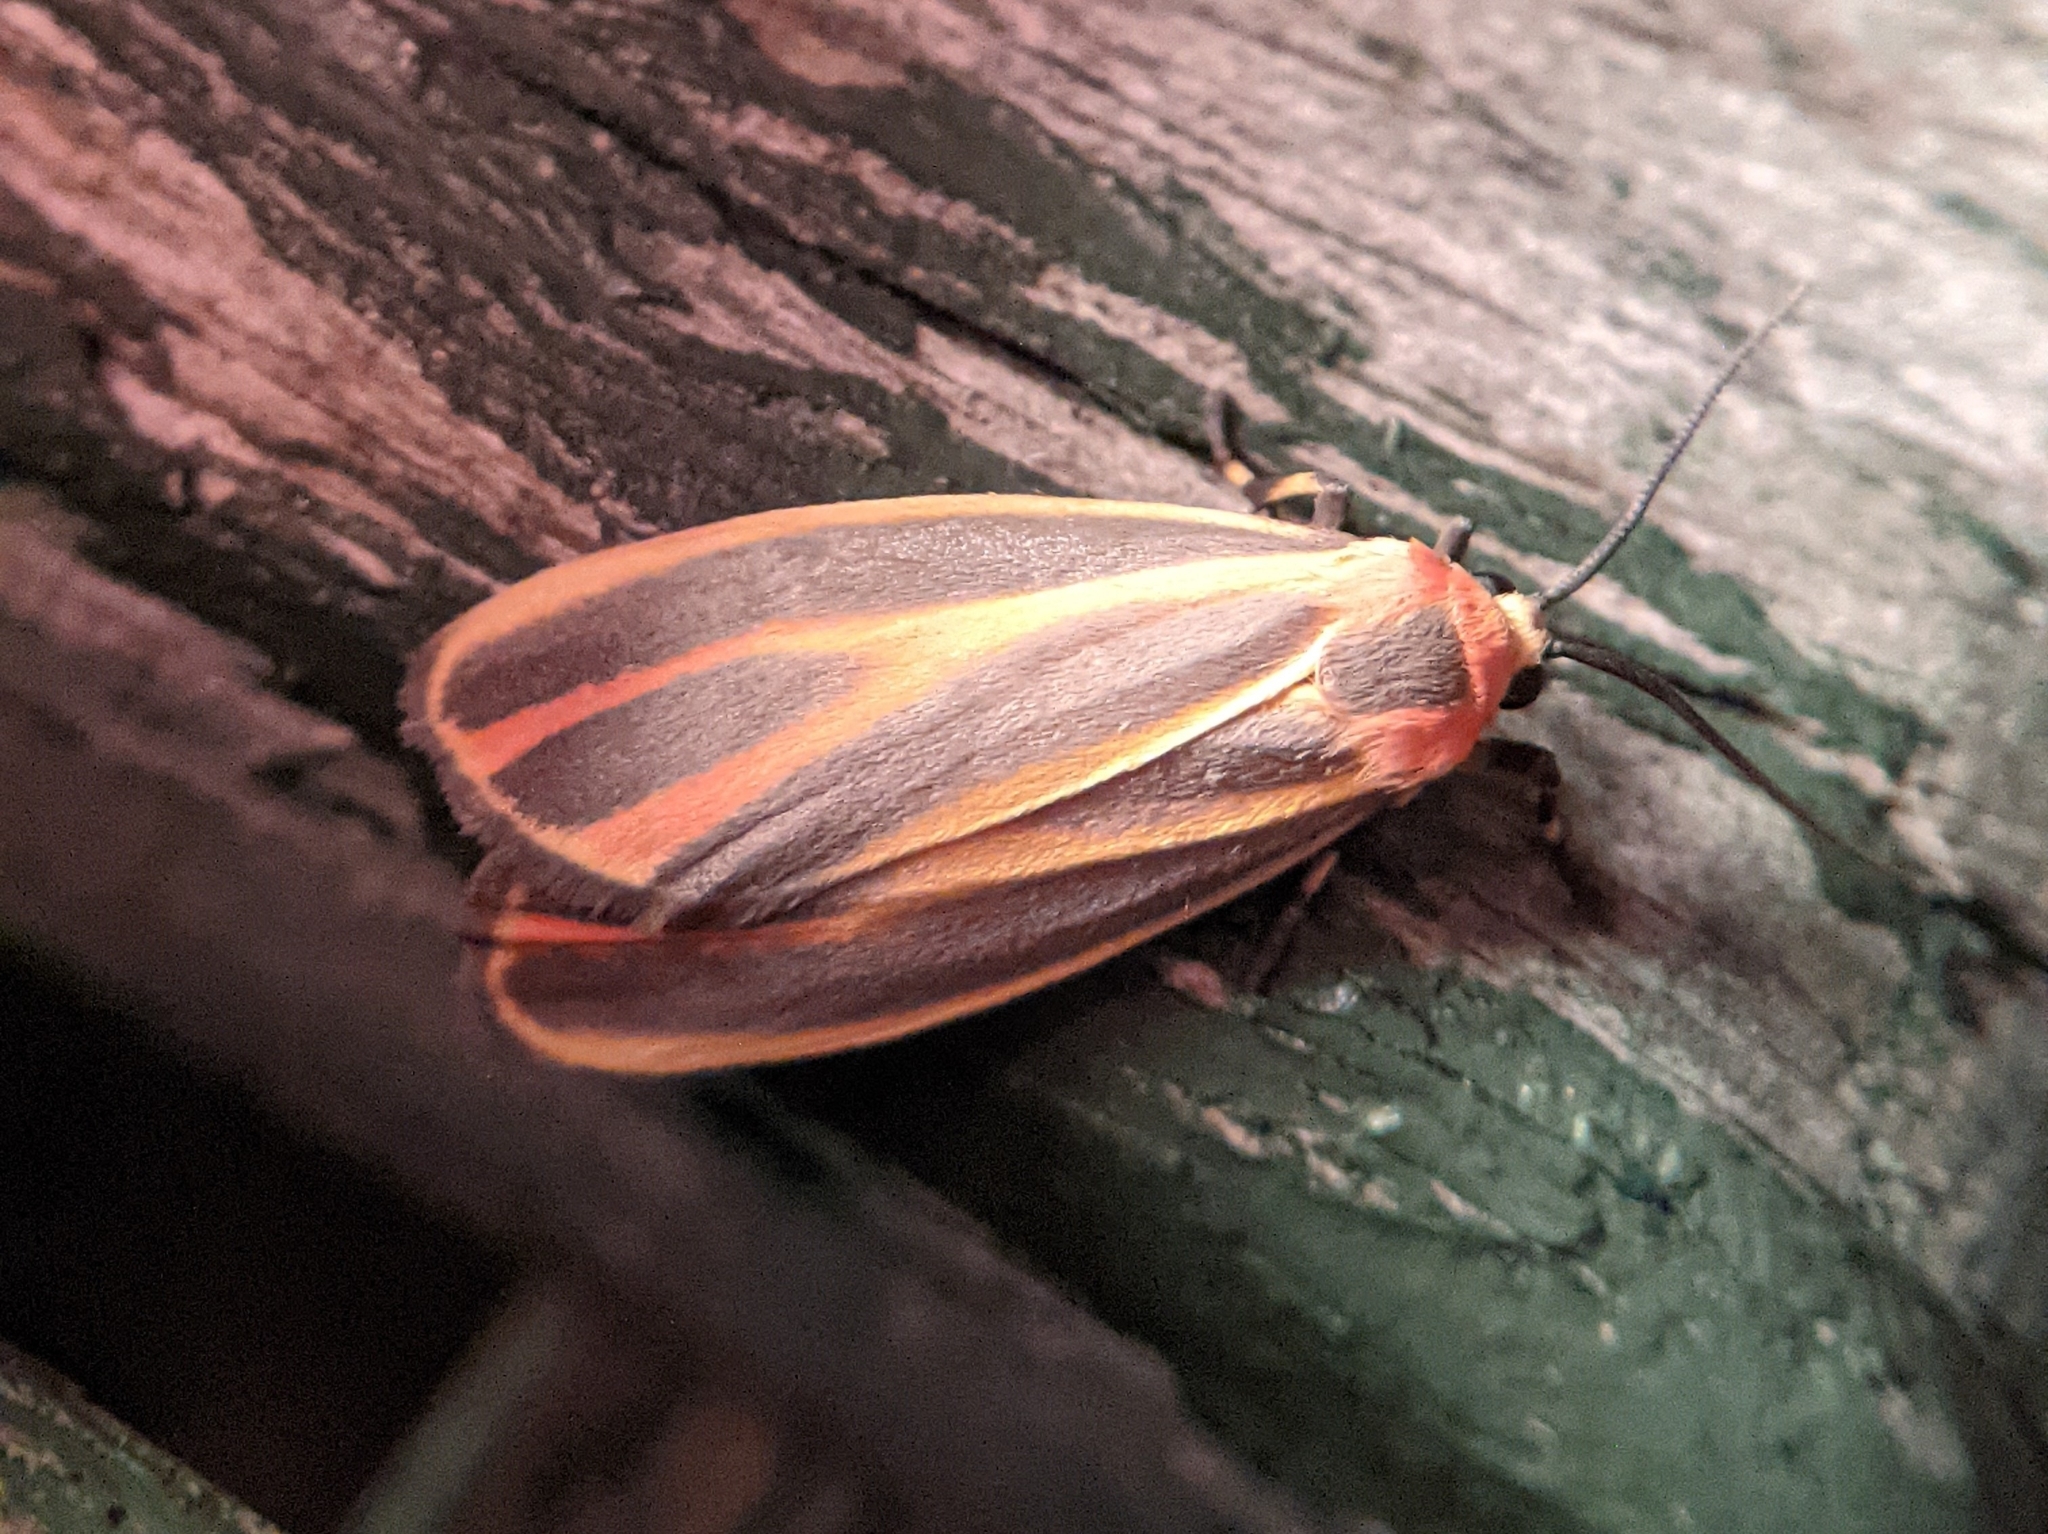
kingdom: Animalia
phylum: Arthropoda
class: Insecta
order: Lepidoptera
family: Erebidae
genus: Hypoprepia
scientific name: Hypoprepia fucosa
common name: Painted lichen moth
